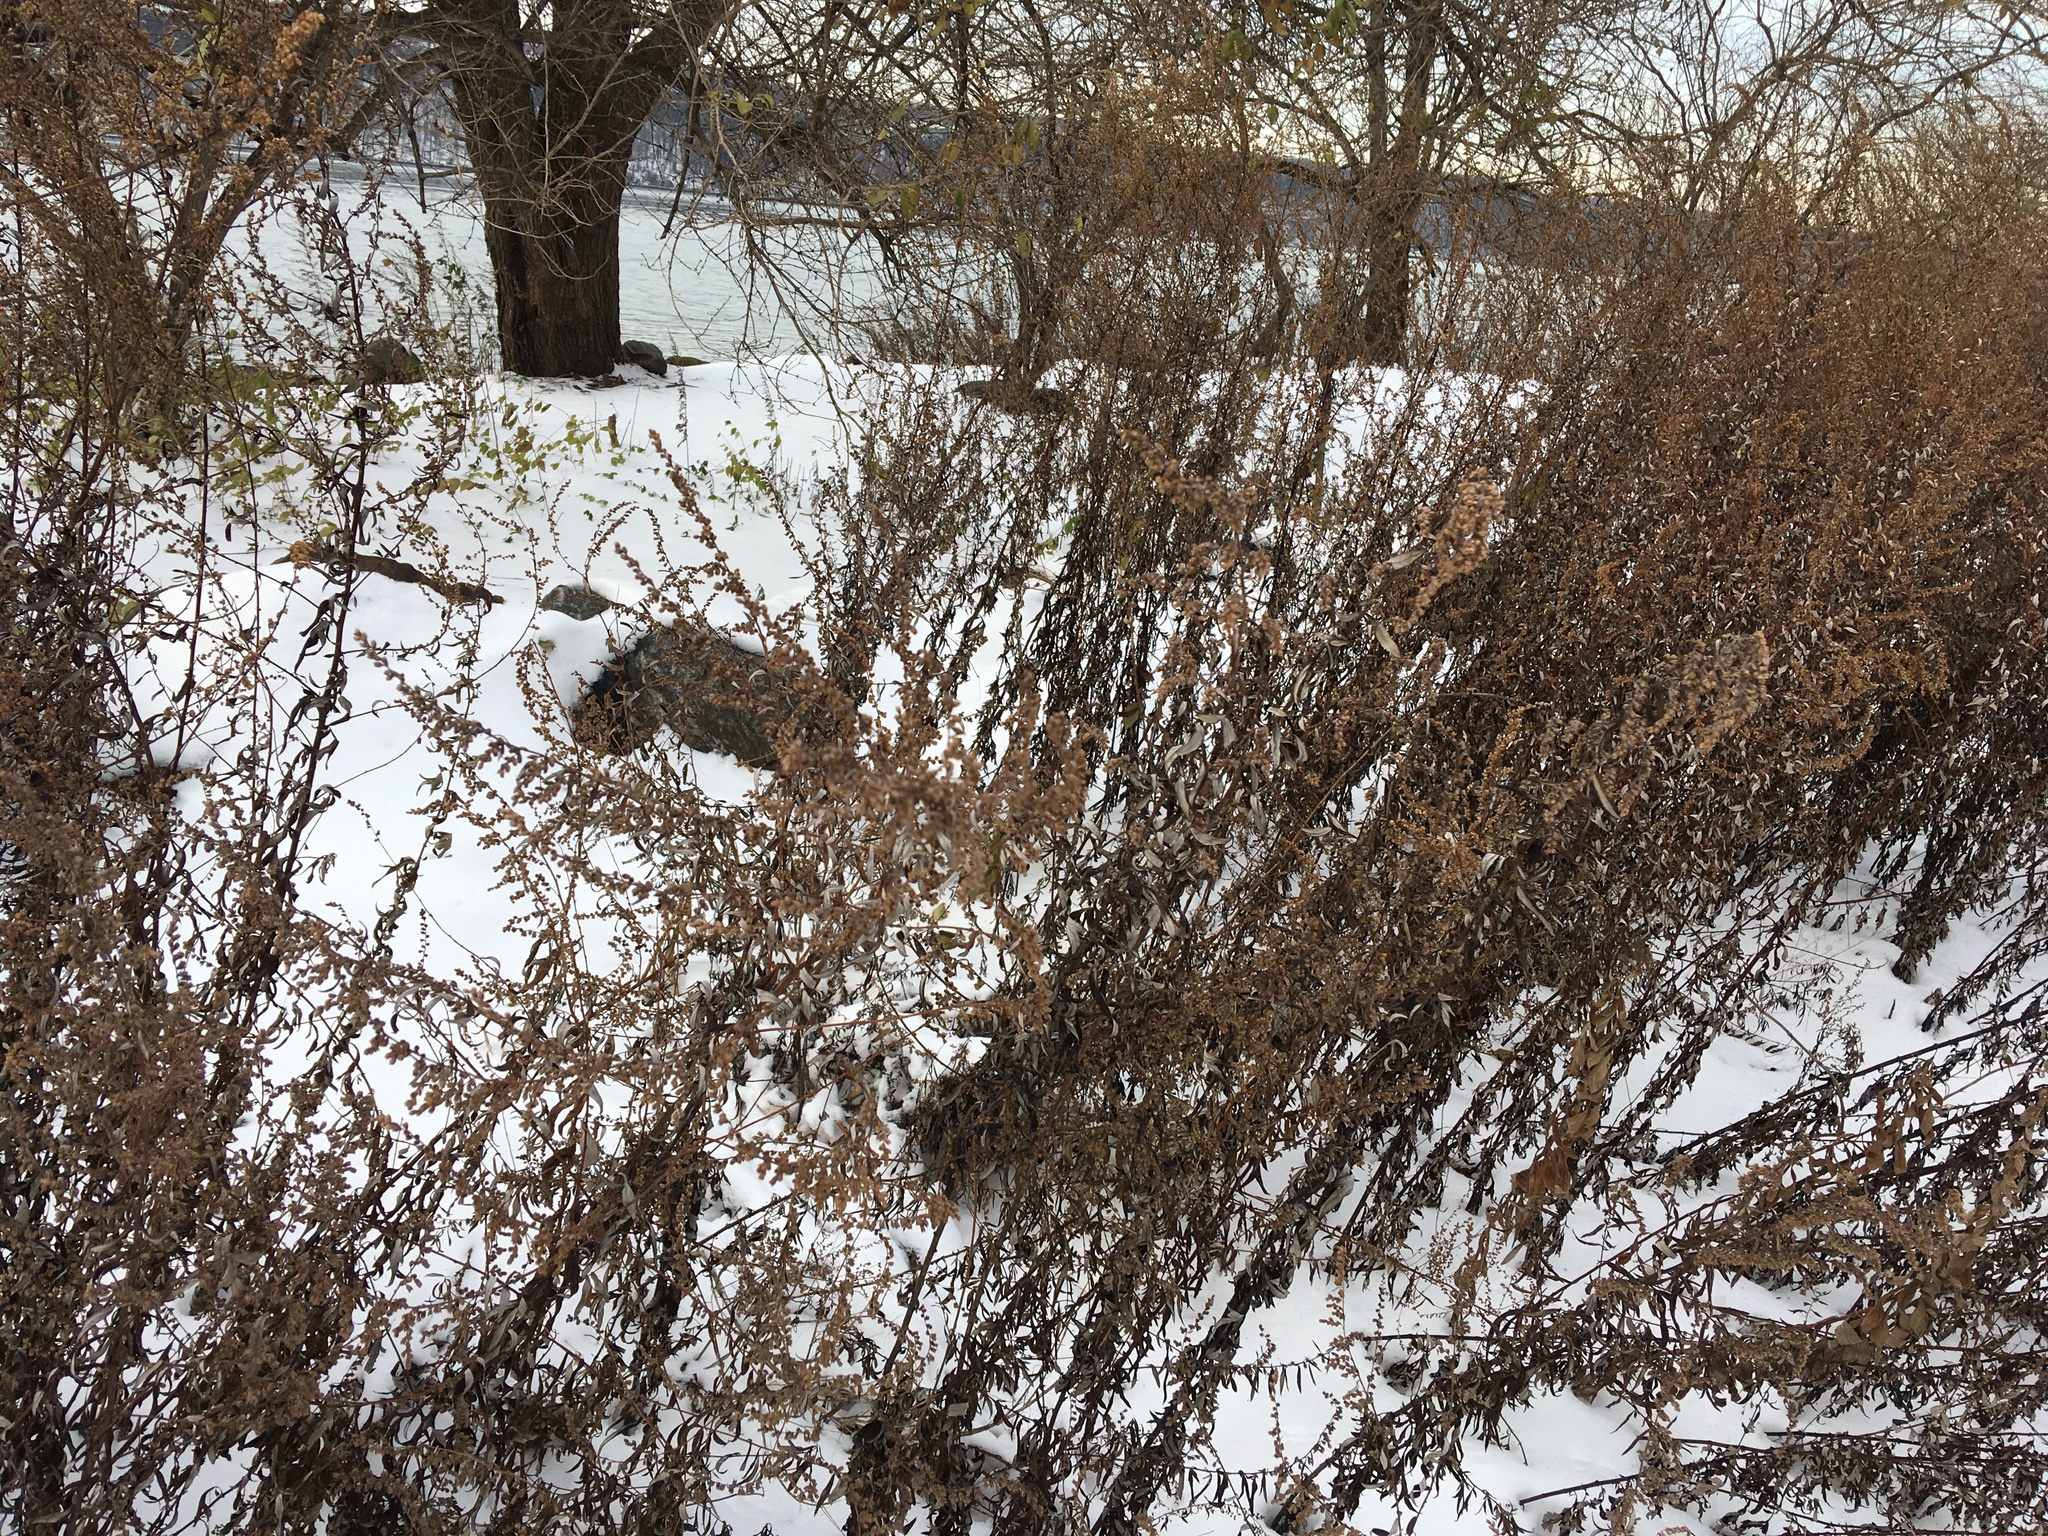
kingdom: Plantae
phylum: Tracheophyta
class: Magnoliopsida
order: Asterales
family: Asteraceae
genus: Artemisia
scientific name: Artemisia vulgaris
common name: Mugwort
